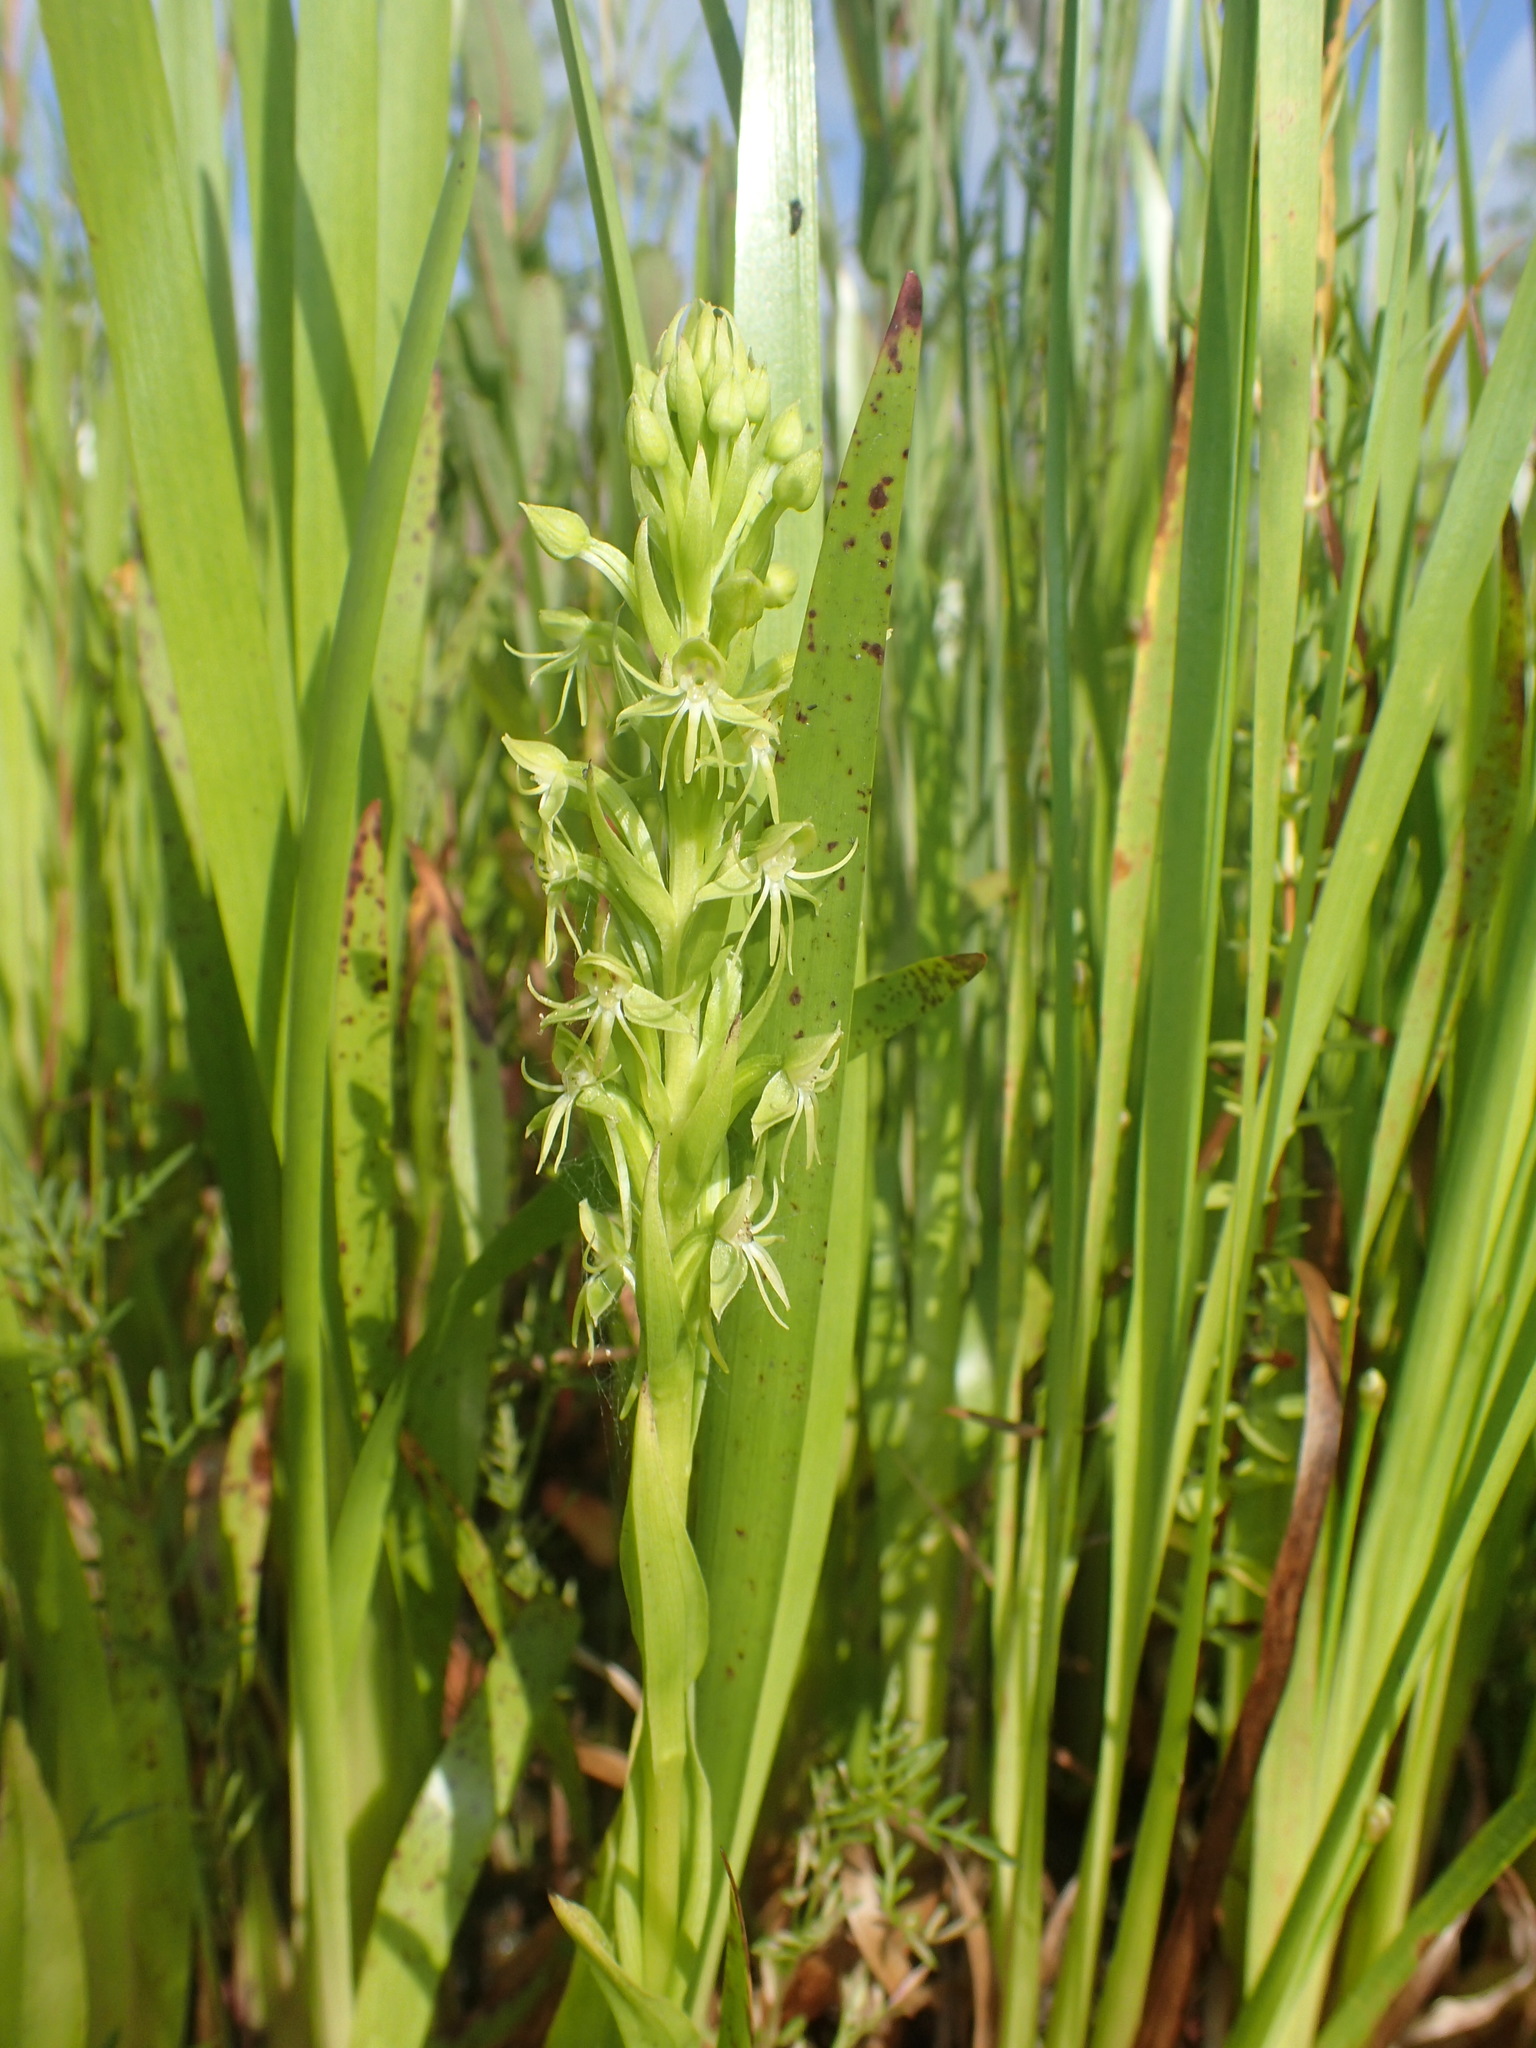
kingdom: Plantae
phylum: Tracheophyta
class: Liliopsida
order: Asparagales
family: Orchidaceae
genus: Habenaria
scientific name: Habenaria repens
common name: Water orchid
